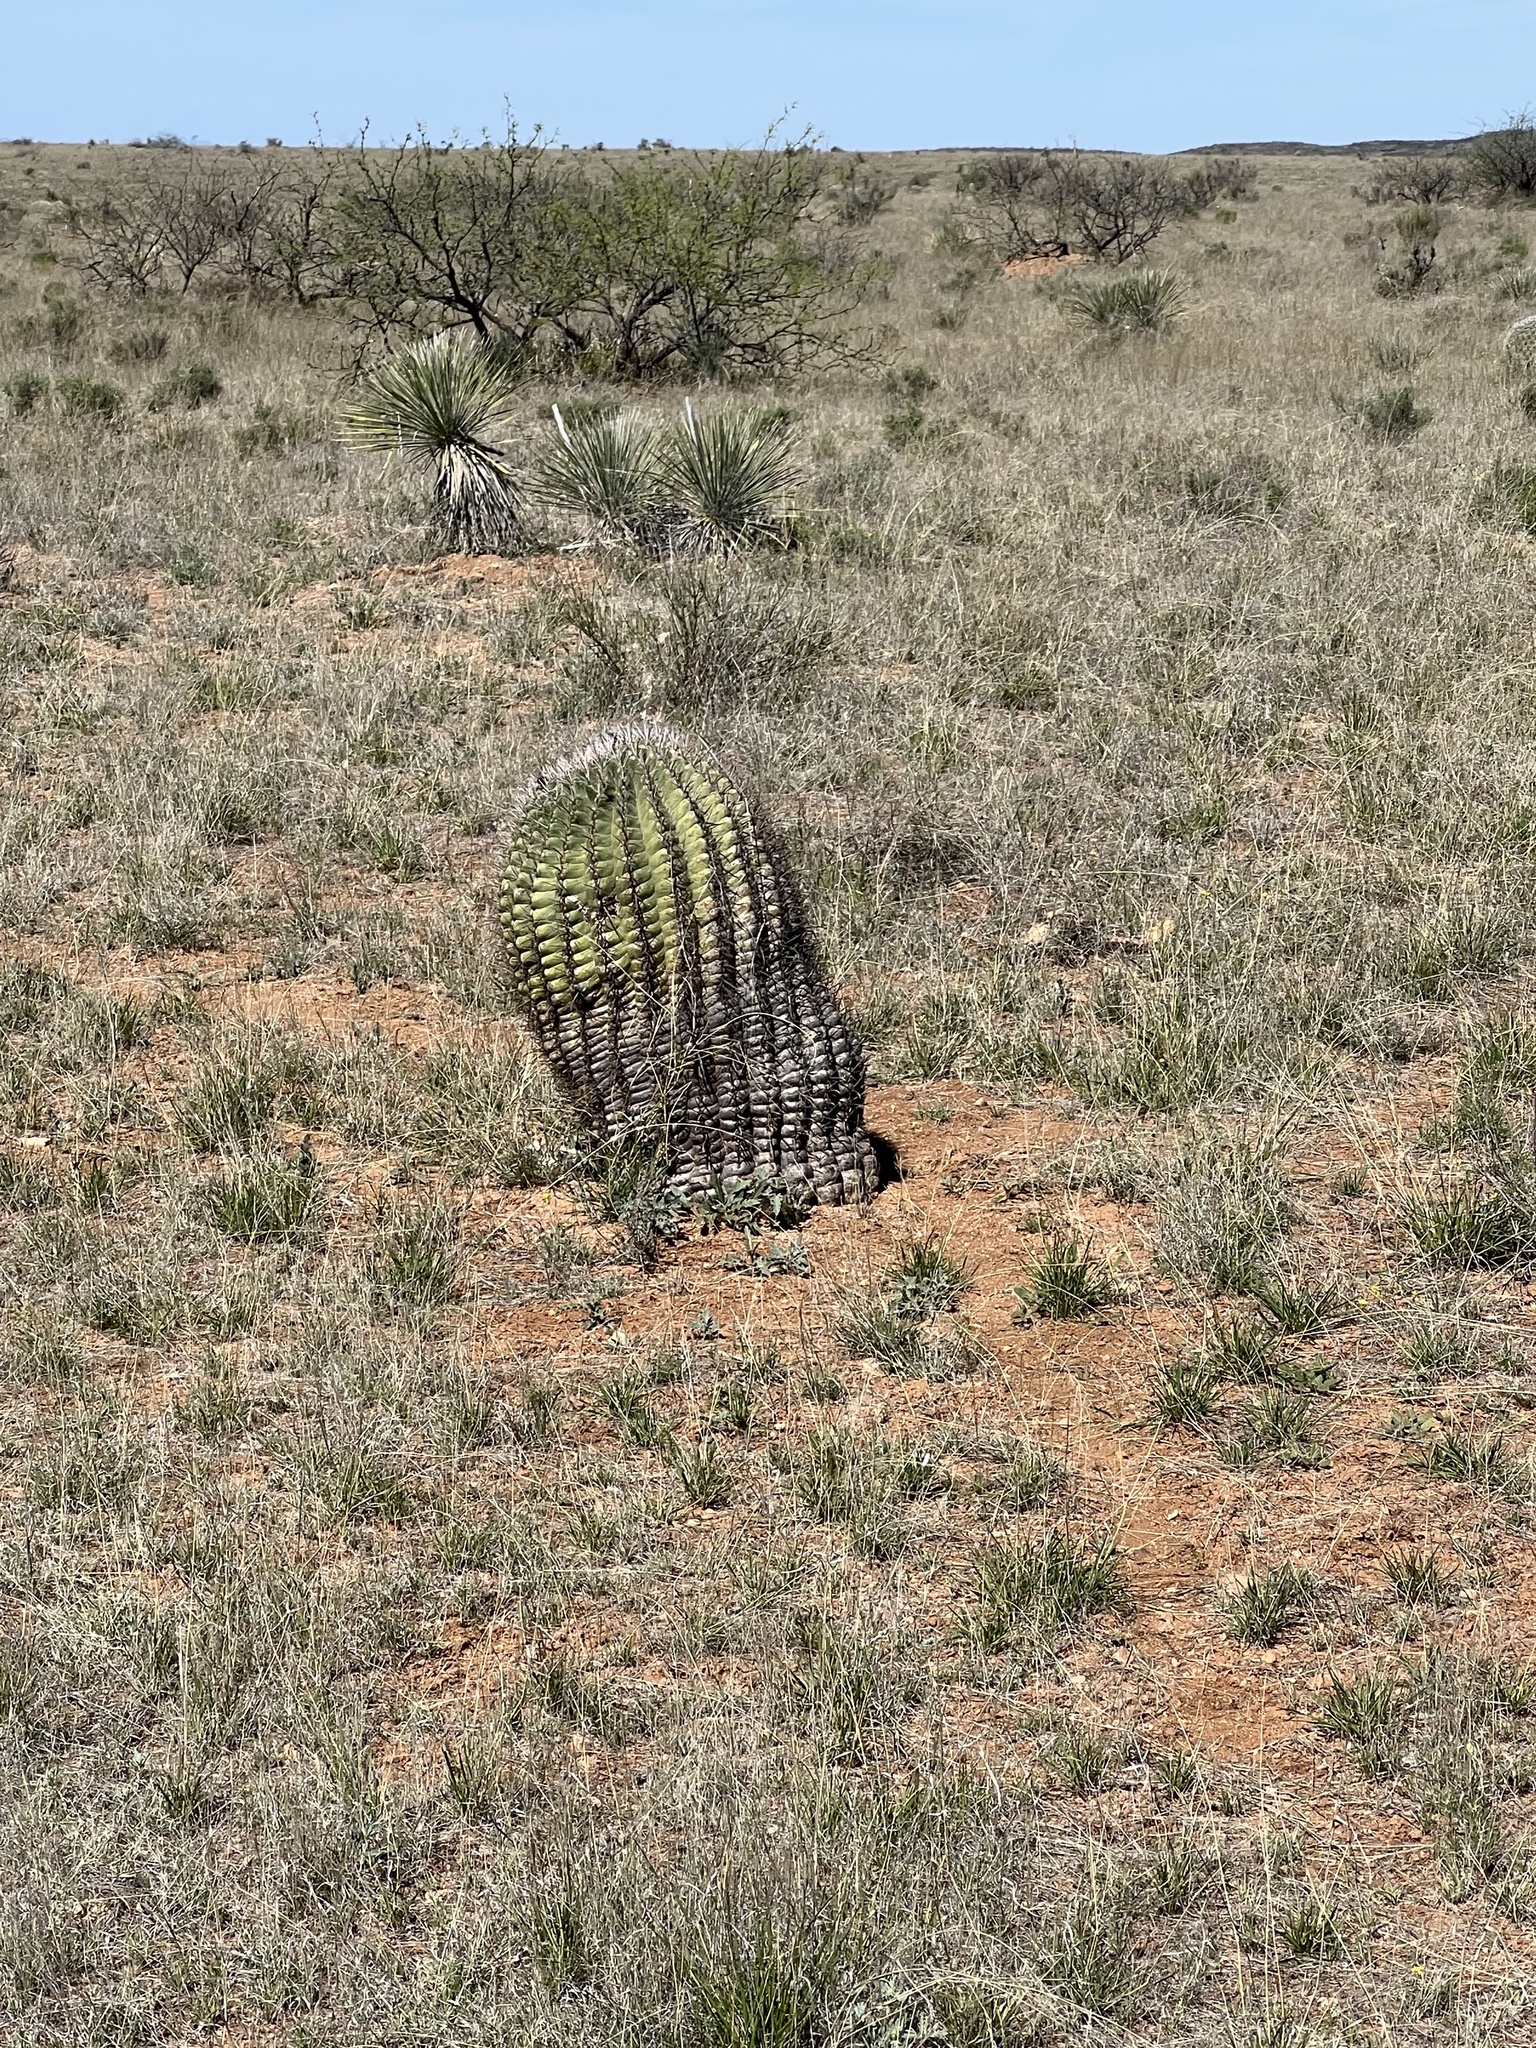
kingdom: Plantae
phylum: Tracheophyta
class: Magnoliopsida
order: Caryophyllales
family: Cactaceae
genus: Ferocactus
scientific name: Ferocactus wislizeni
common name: Candy barrel cactus
